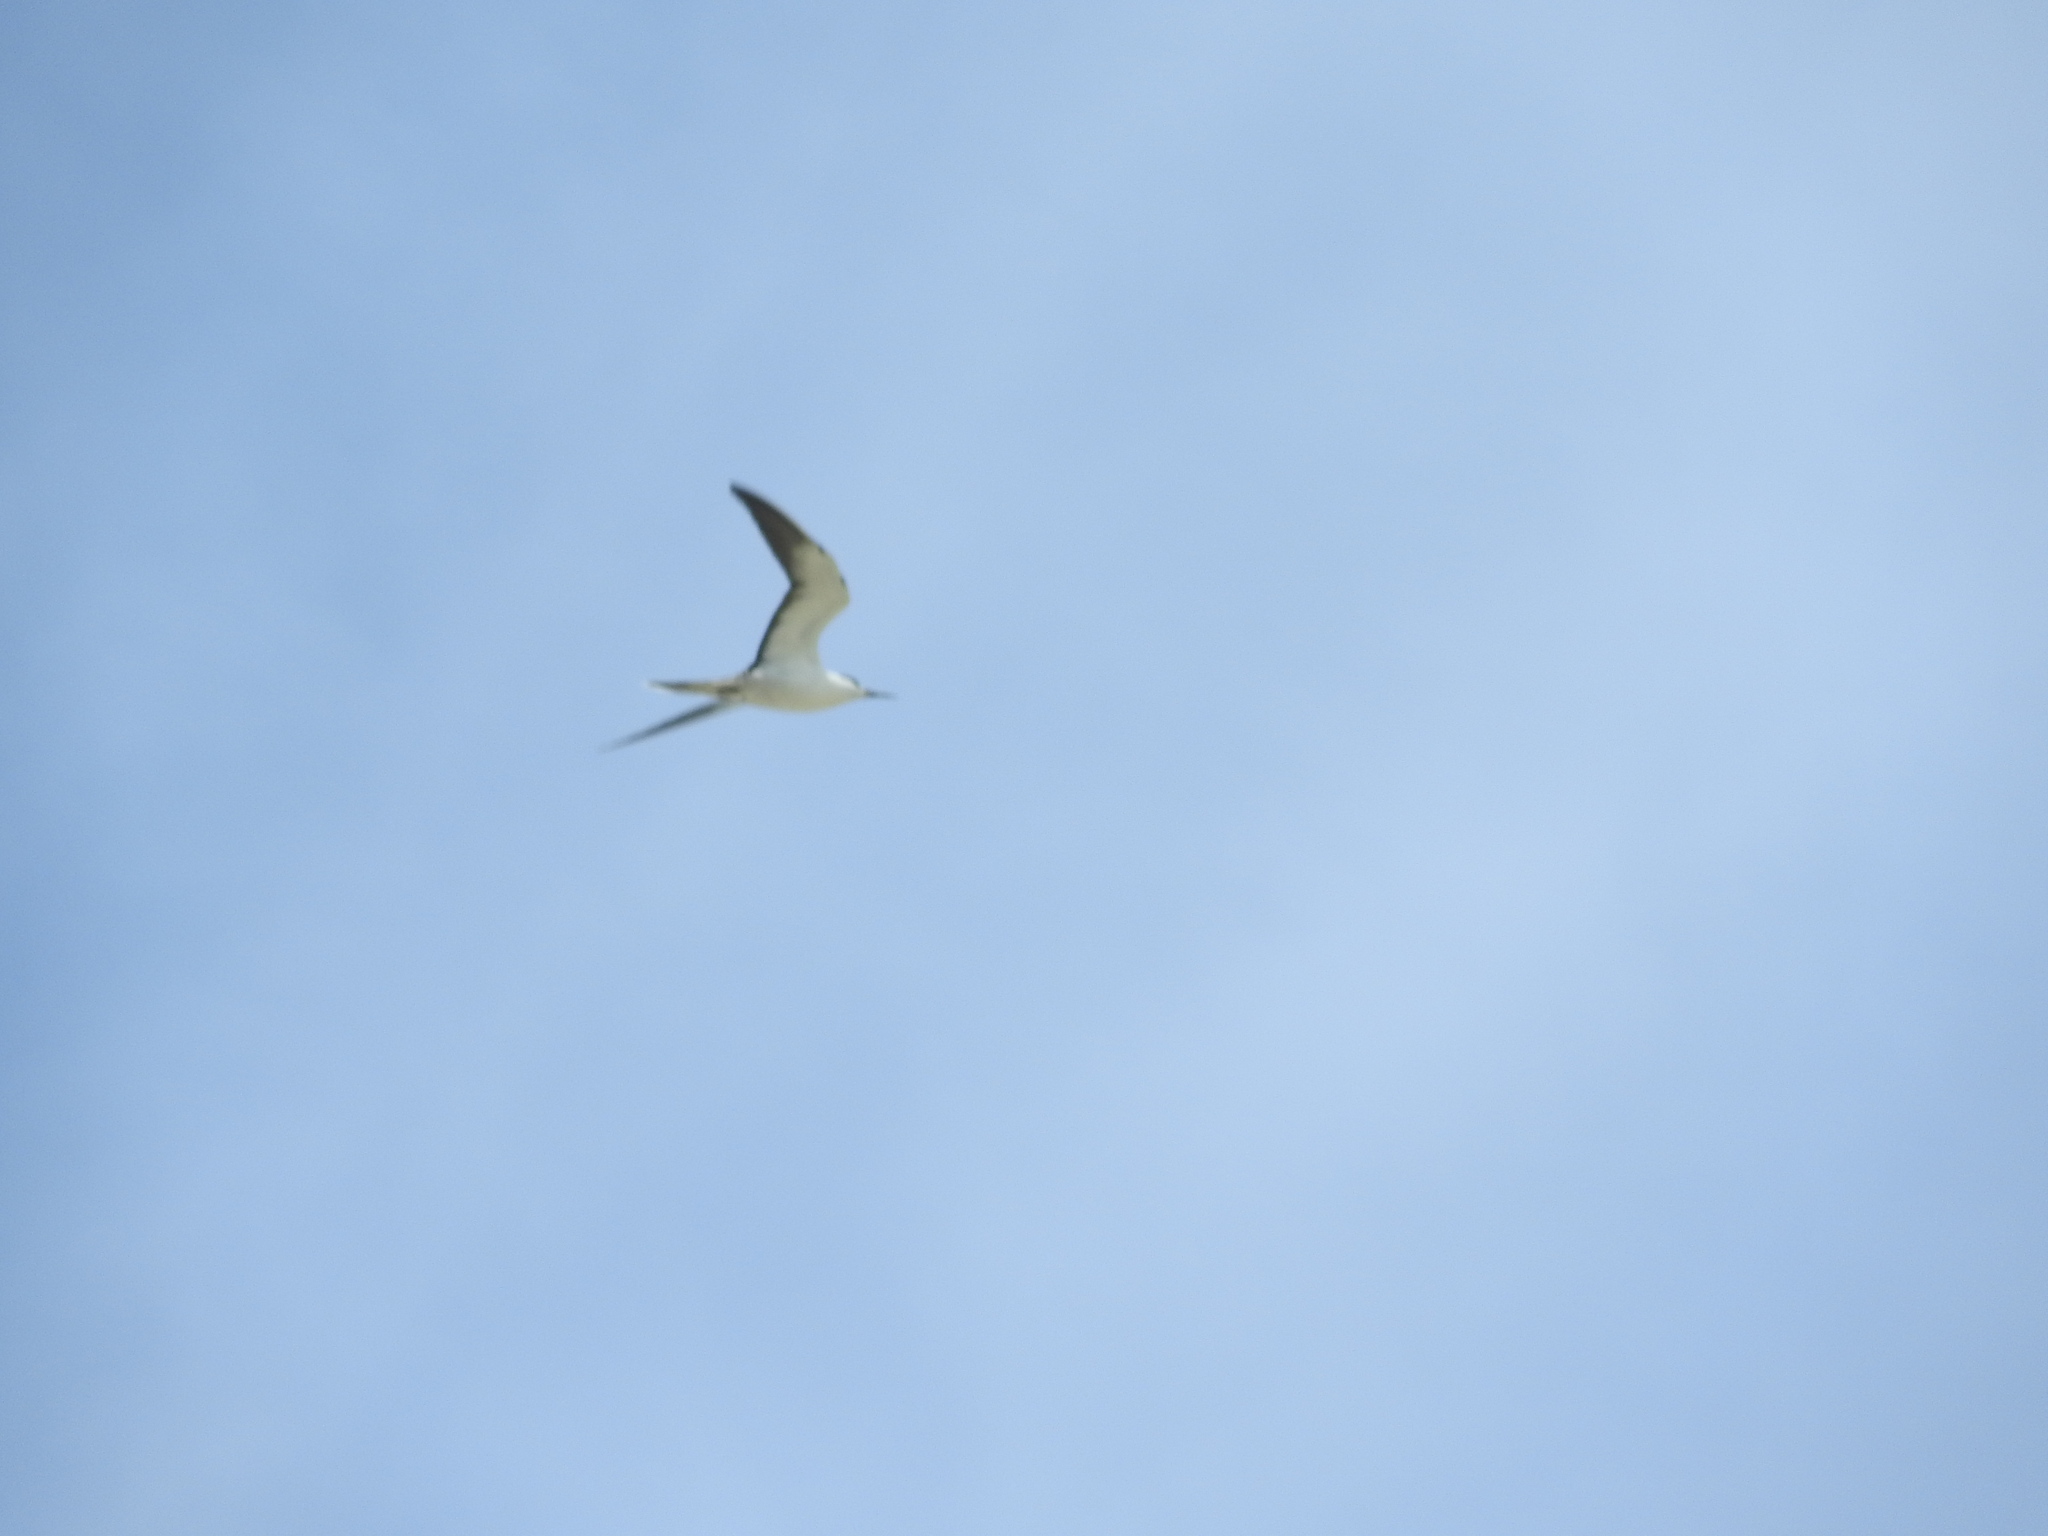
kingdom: Animalia
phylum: Chordata
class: Aves
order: Charadriiformes
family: Laridae
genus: Onychoprion
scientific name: Onychoprion fuscatus
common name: Sooty tern
